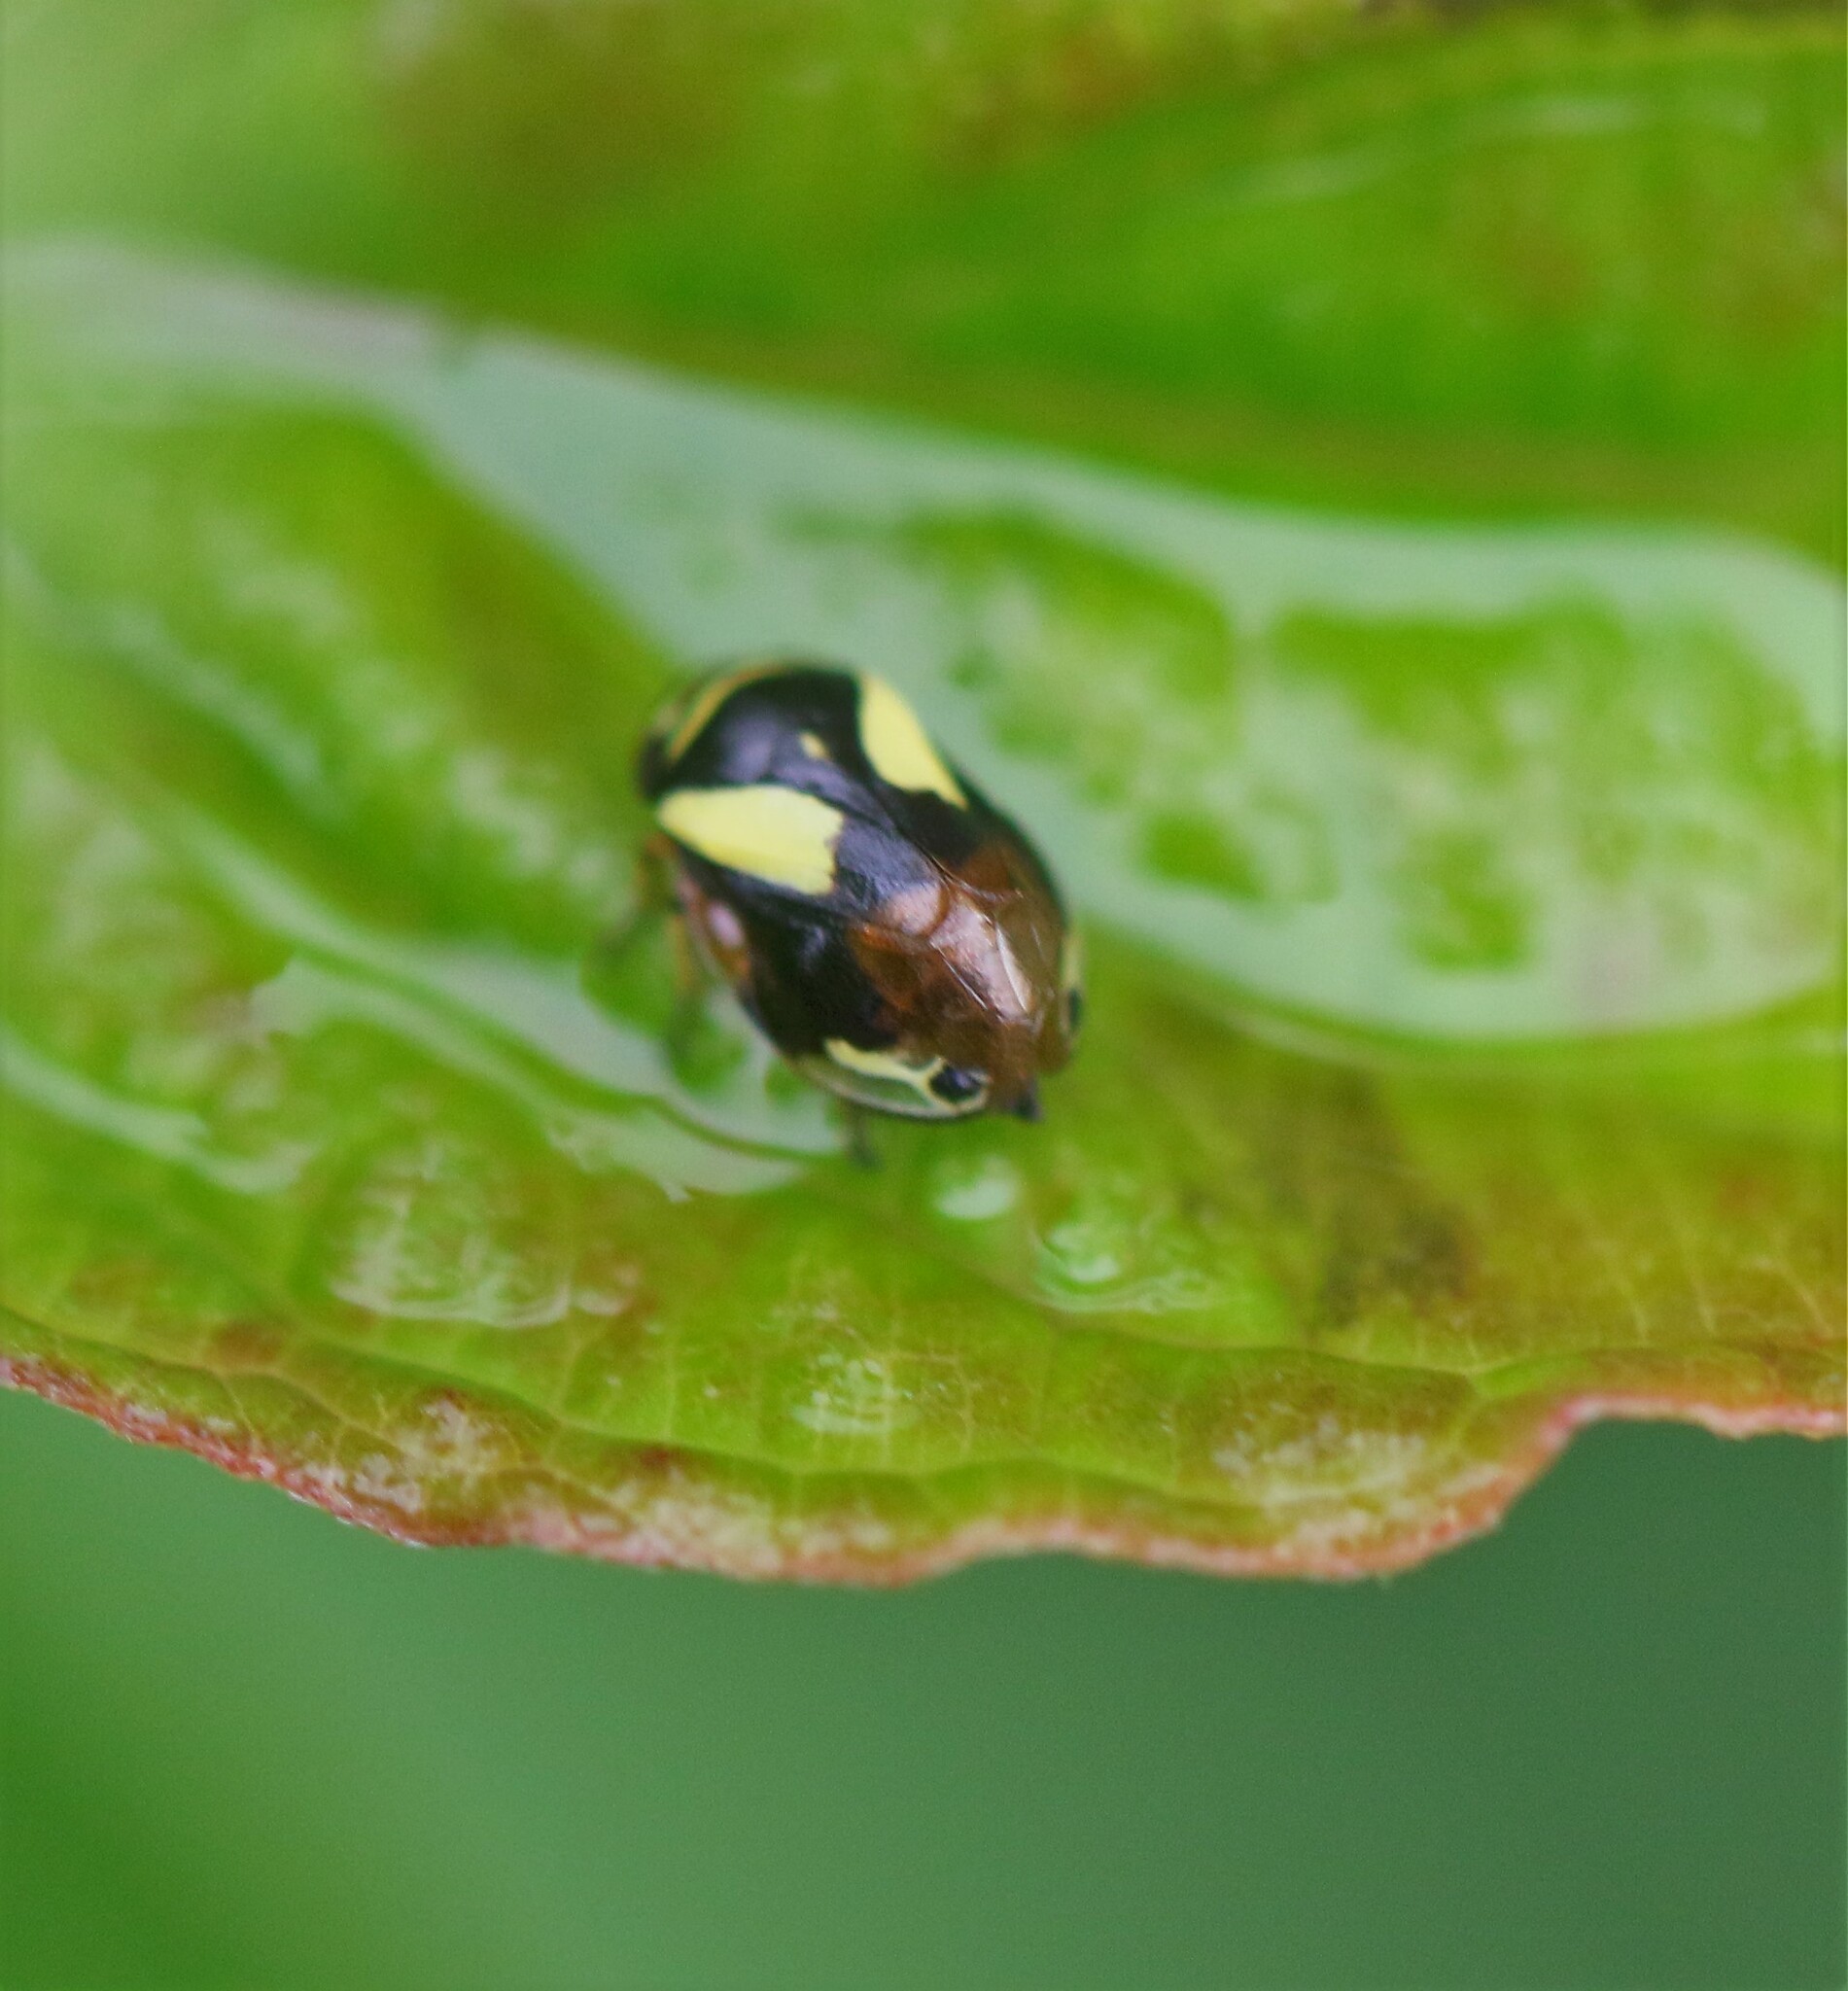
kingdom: Animalia
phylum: Arthropoda
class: Insecta
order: Hemiptera
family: Clastopteridae
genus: Clastoptera
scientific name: Clastoptera proteus
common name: Dogwood spittlebug
